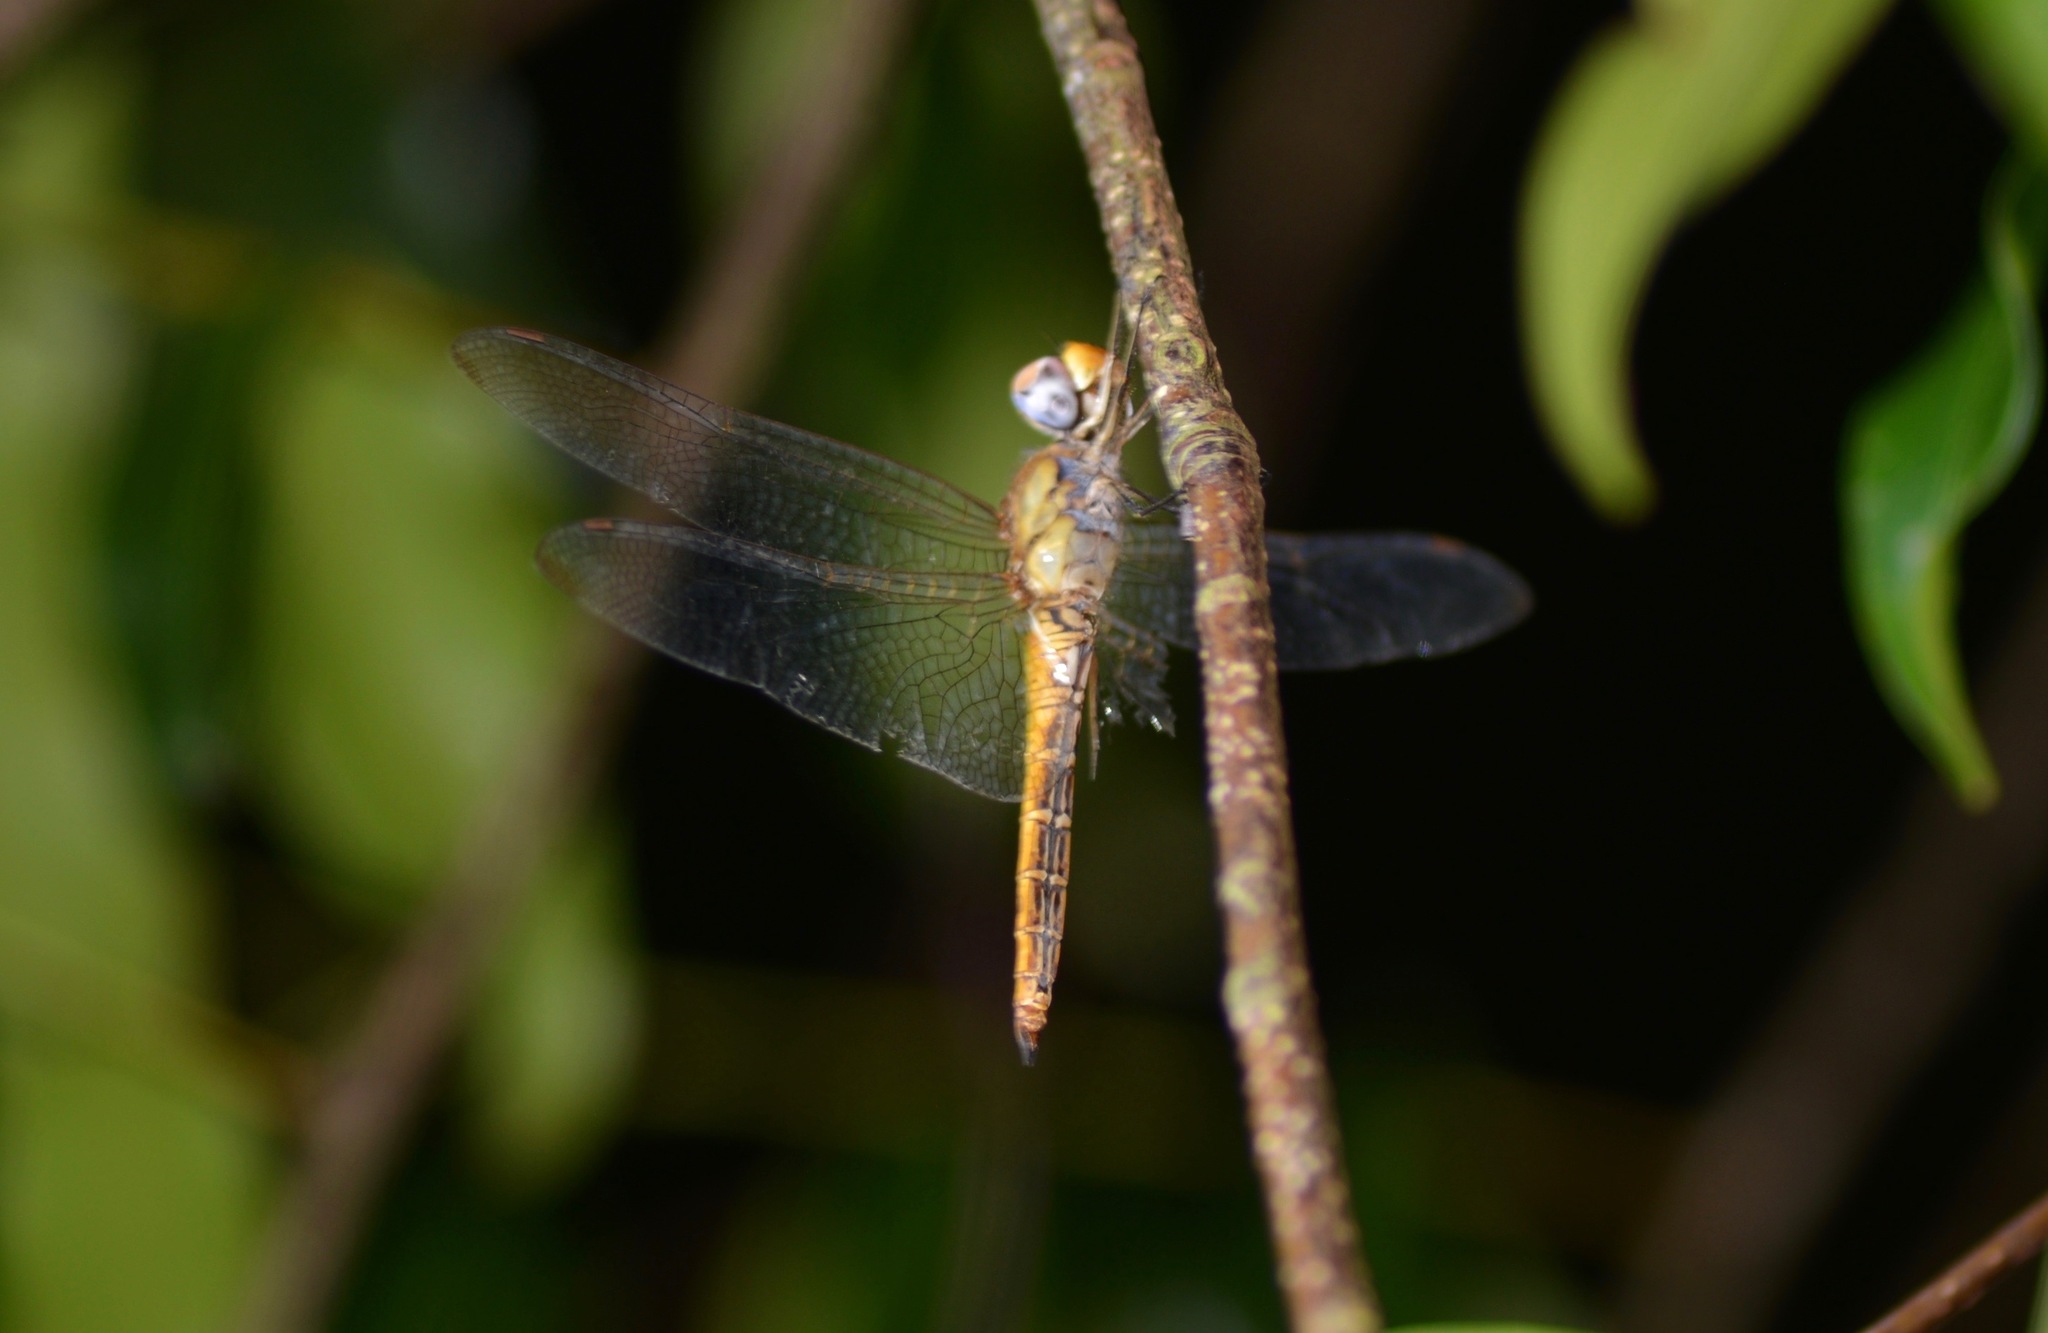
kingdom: Animalia
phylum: Arthropoda
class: Insecta
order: Odonata
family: Libellulidae
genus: Pantala
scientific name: Pantala flavescens
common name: Wandering glider
